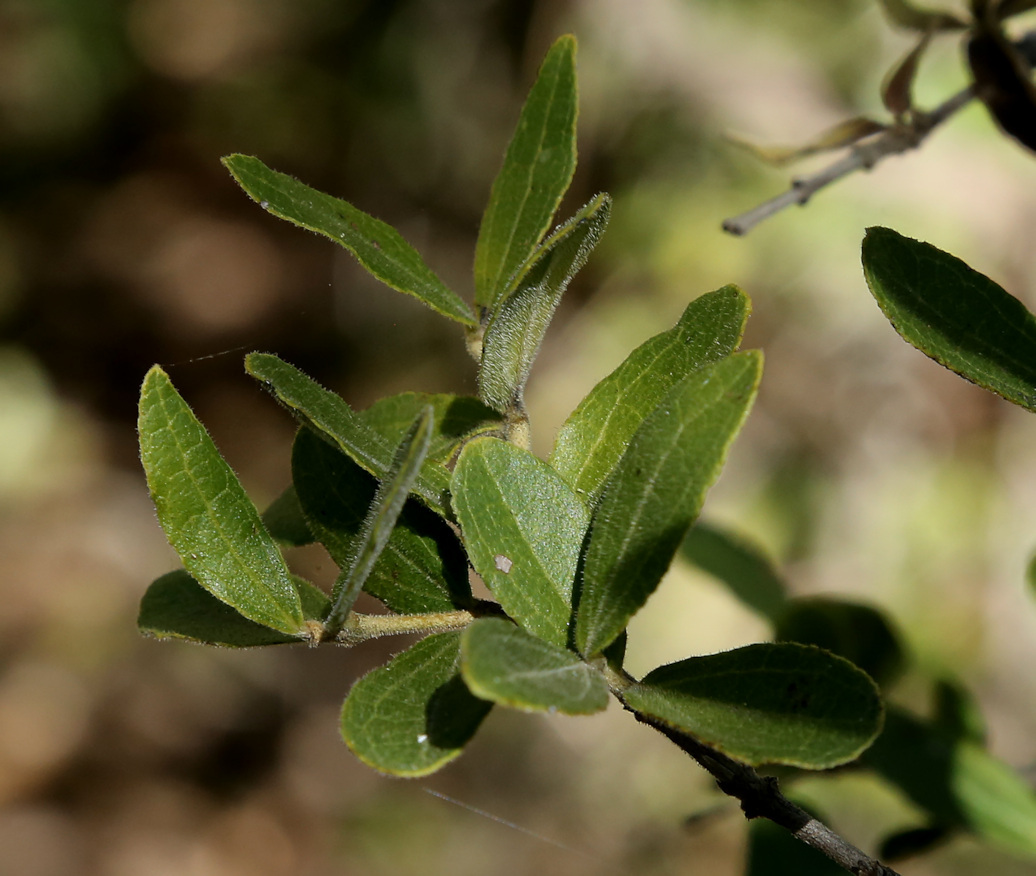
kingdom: Plantae
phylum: Tracheophyta
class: Magnoliopsida
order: Gentianales
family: Loganiaceae
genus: Strychnos
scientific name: Strychnos madagascariensis
